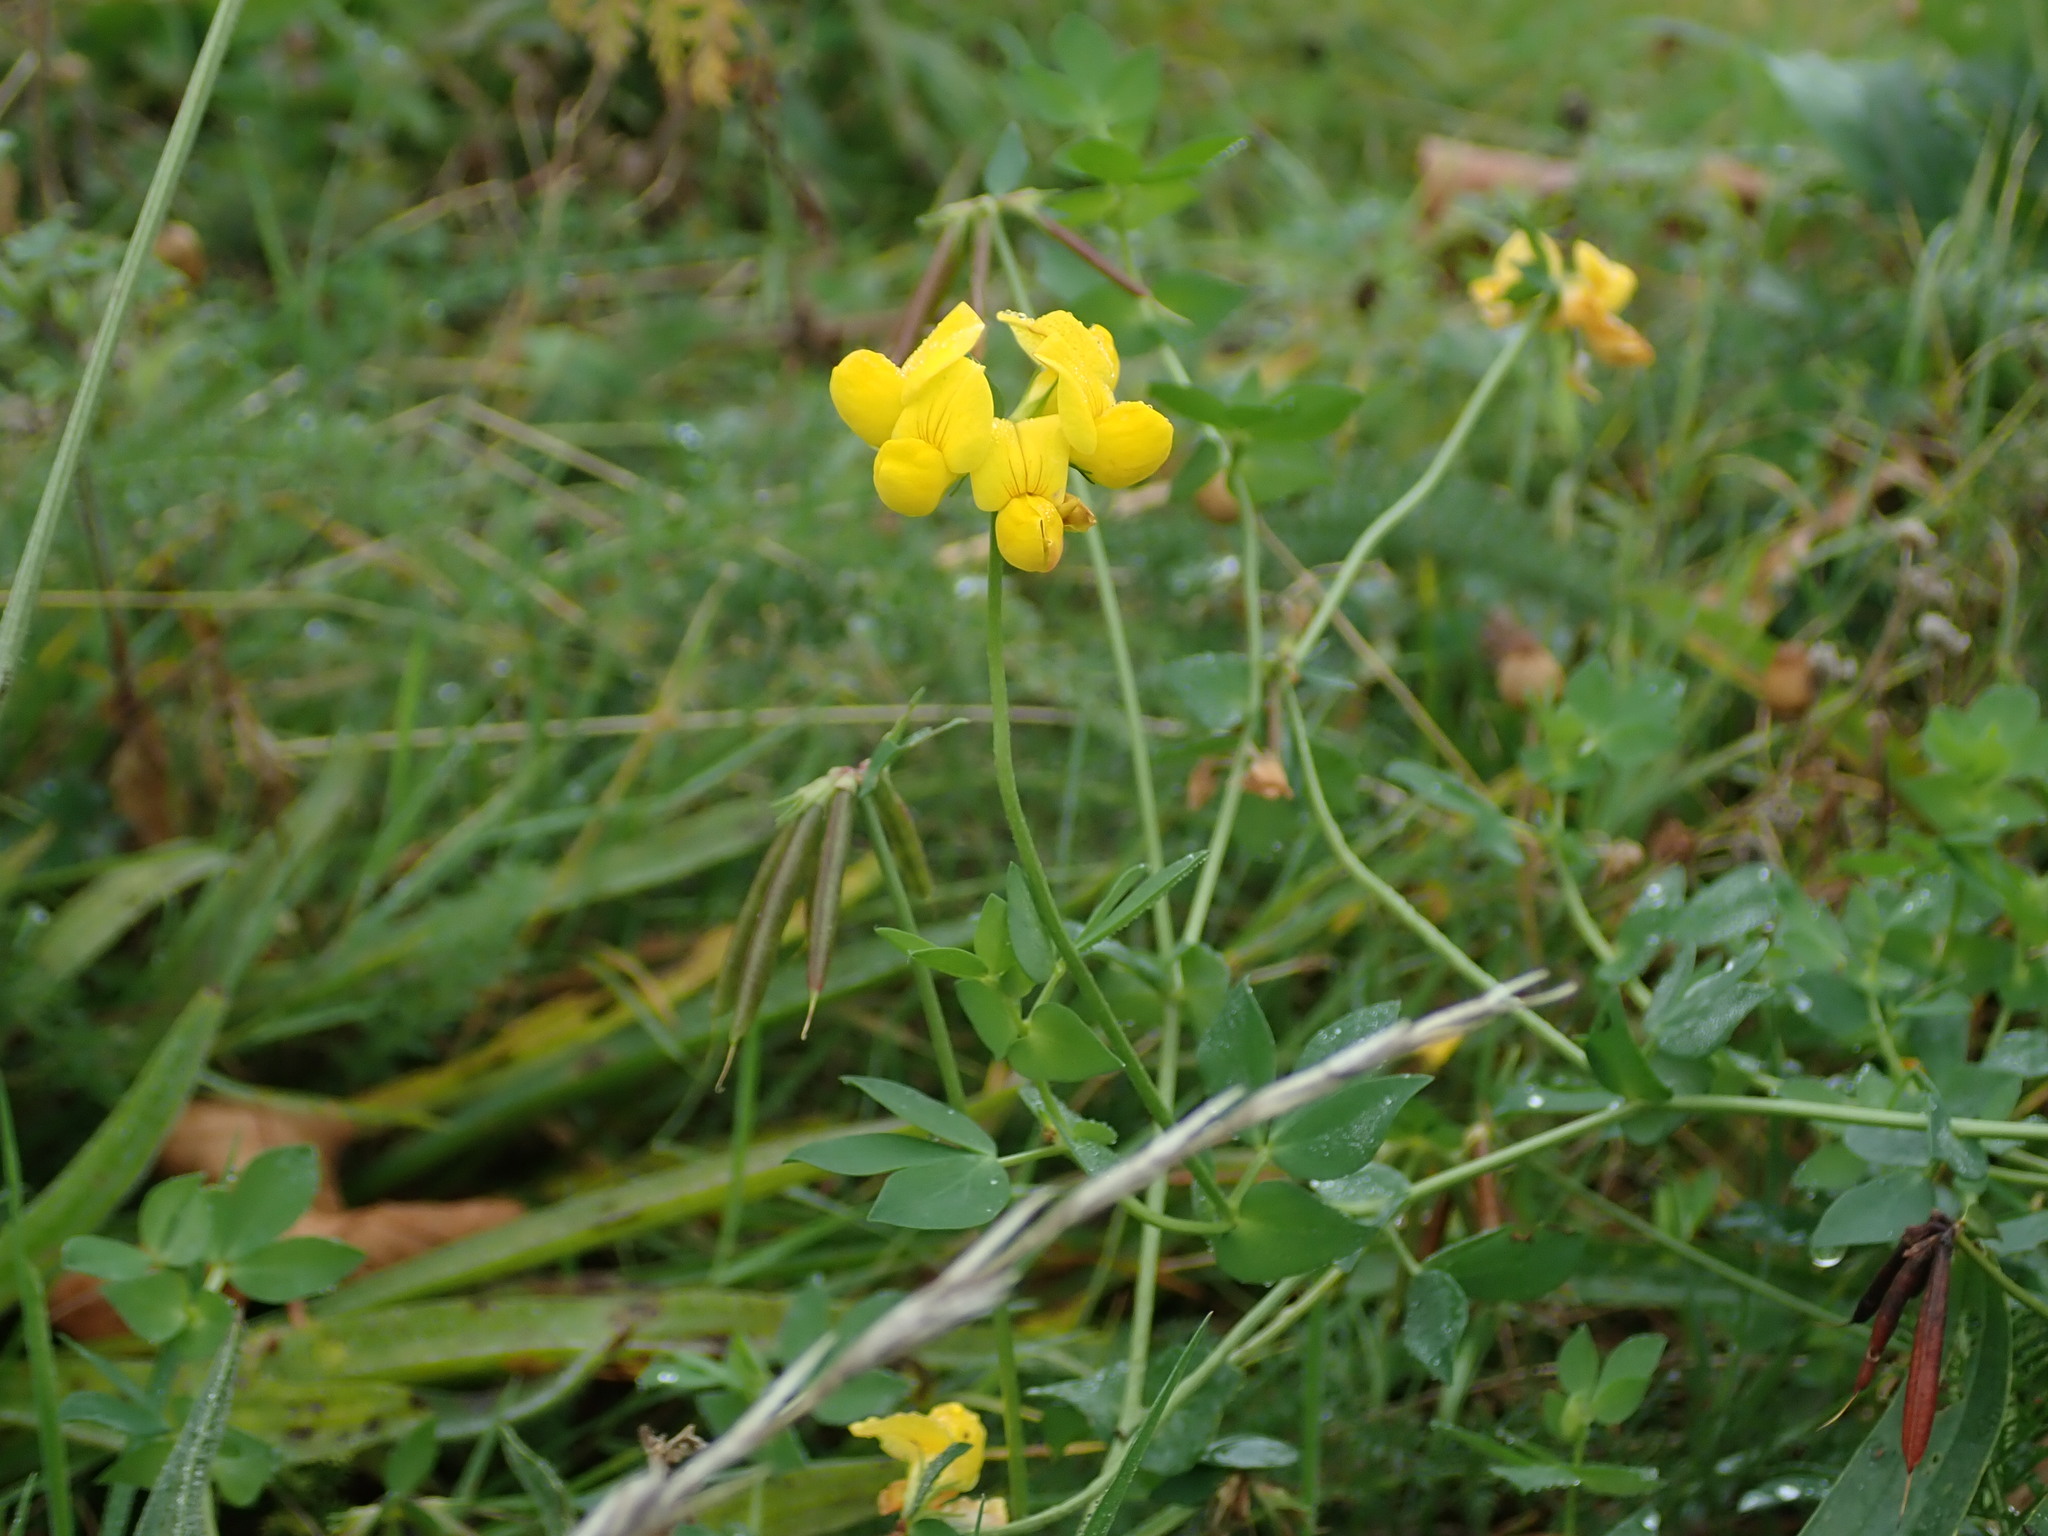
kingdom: Plantae
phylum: Tracheophyta
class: Magnoliopsida
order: Fabales
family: Fabaceae
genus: Lotus
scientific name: Lotus corniculatus
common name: Common bird's-foot-trefoil
